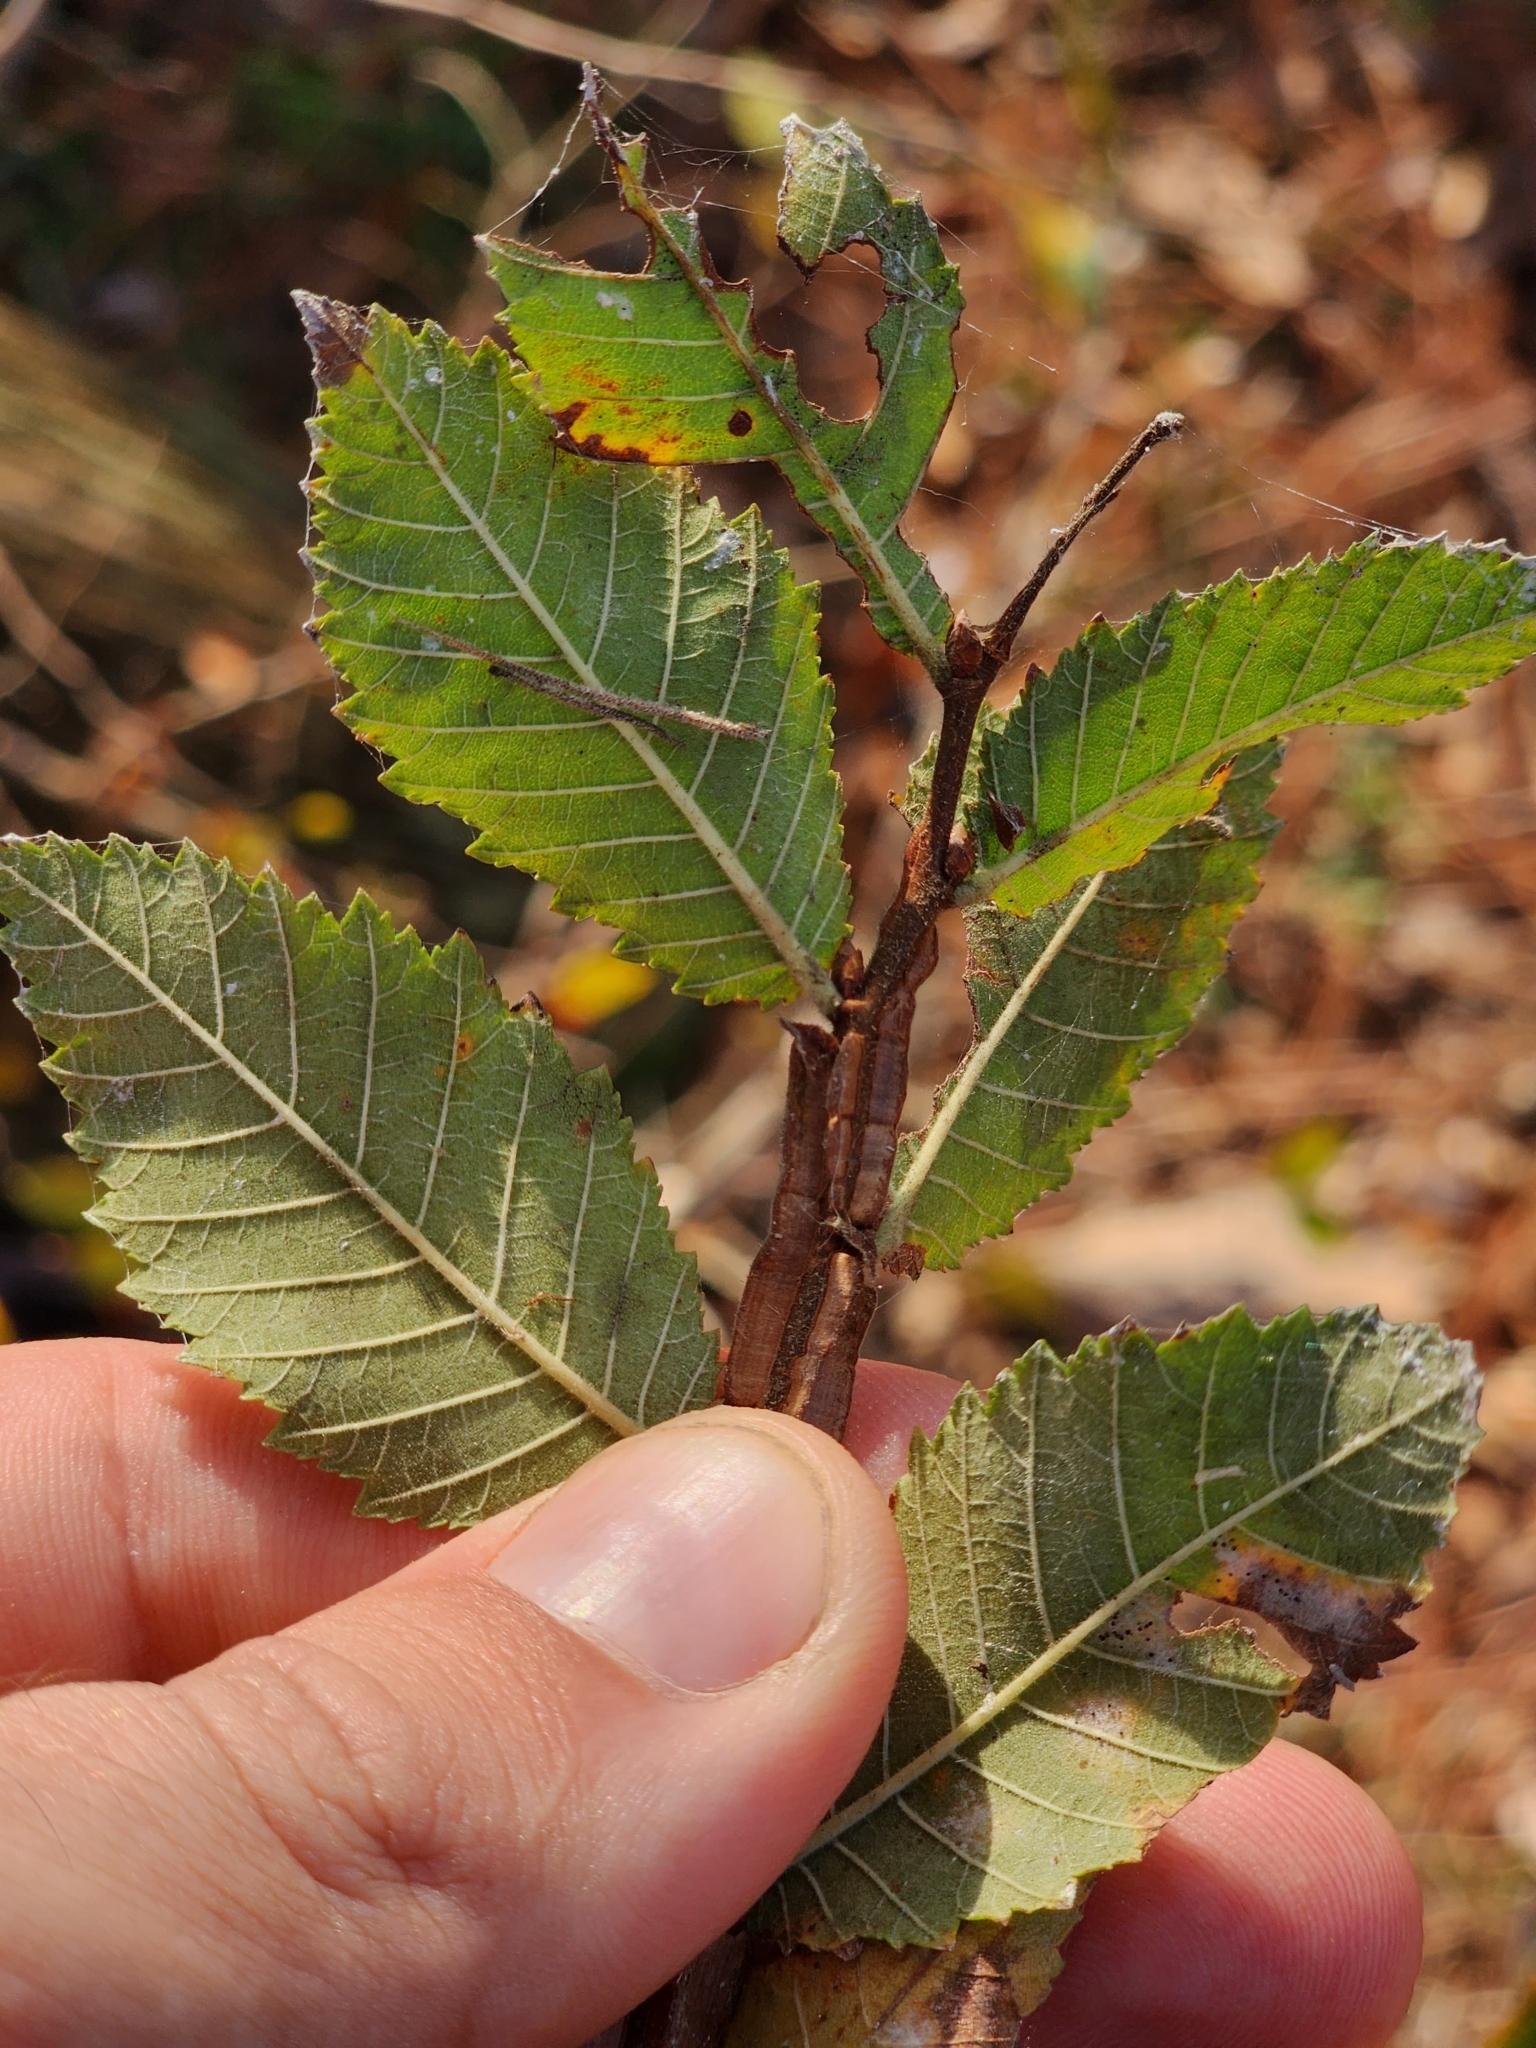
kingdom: Plantae
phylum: Tracheophyta
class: Magnoliopsida
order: Rosales
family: Ulmaceae
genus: Ulmus
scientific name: Ulmus alata
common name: Winged elm
